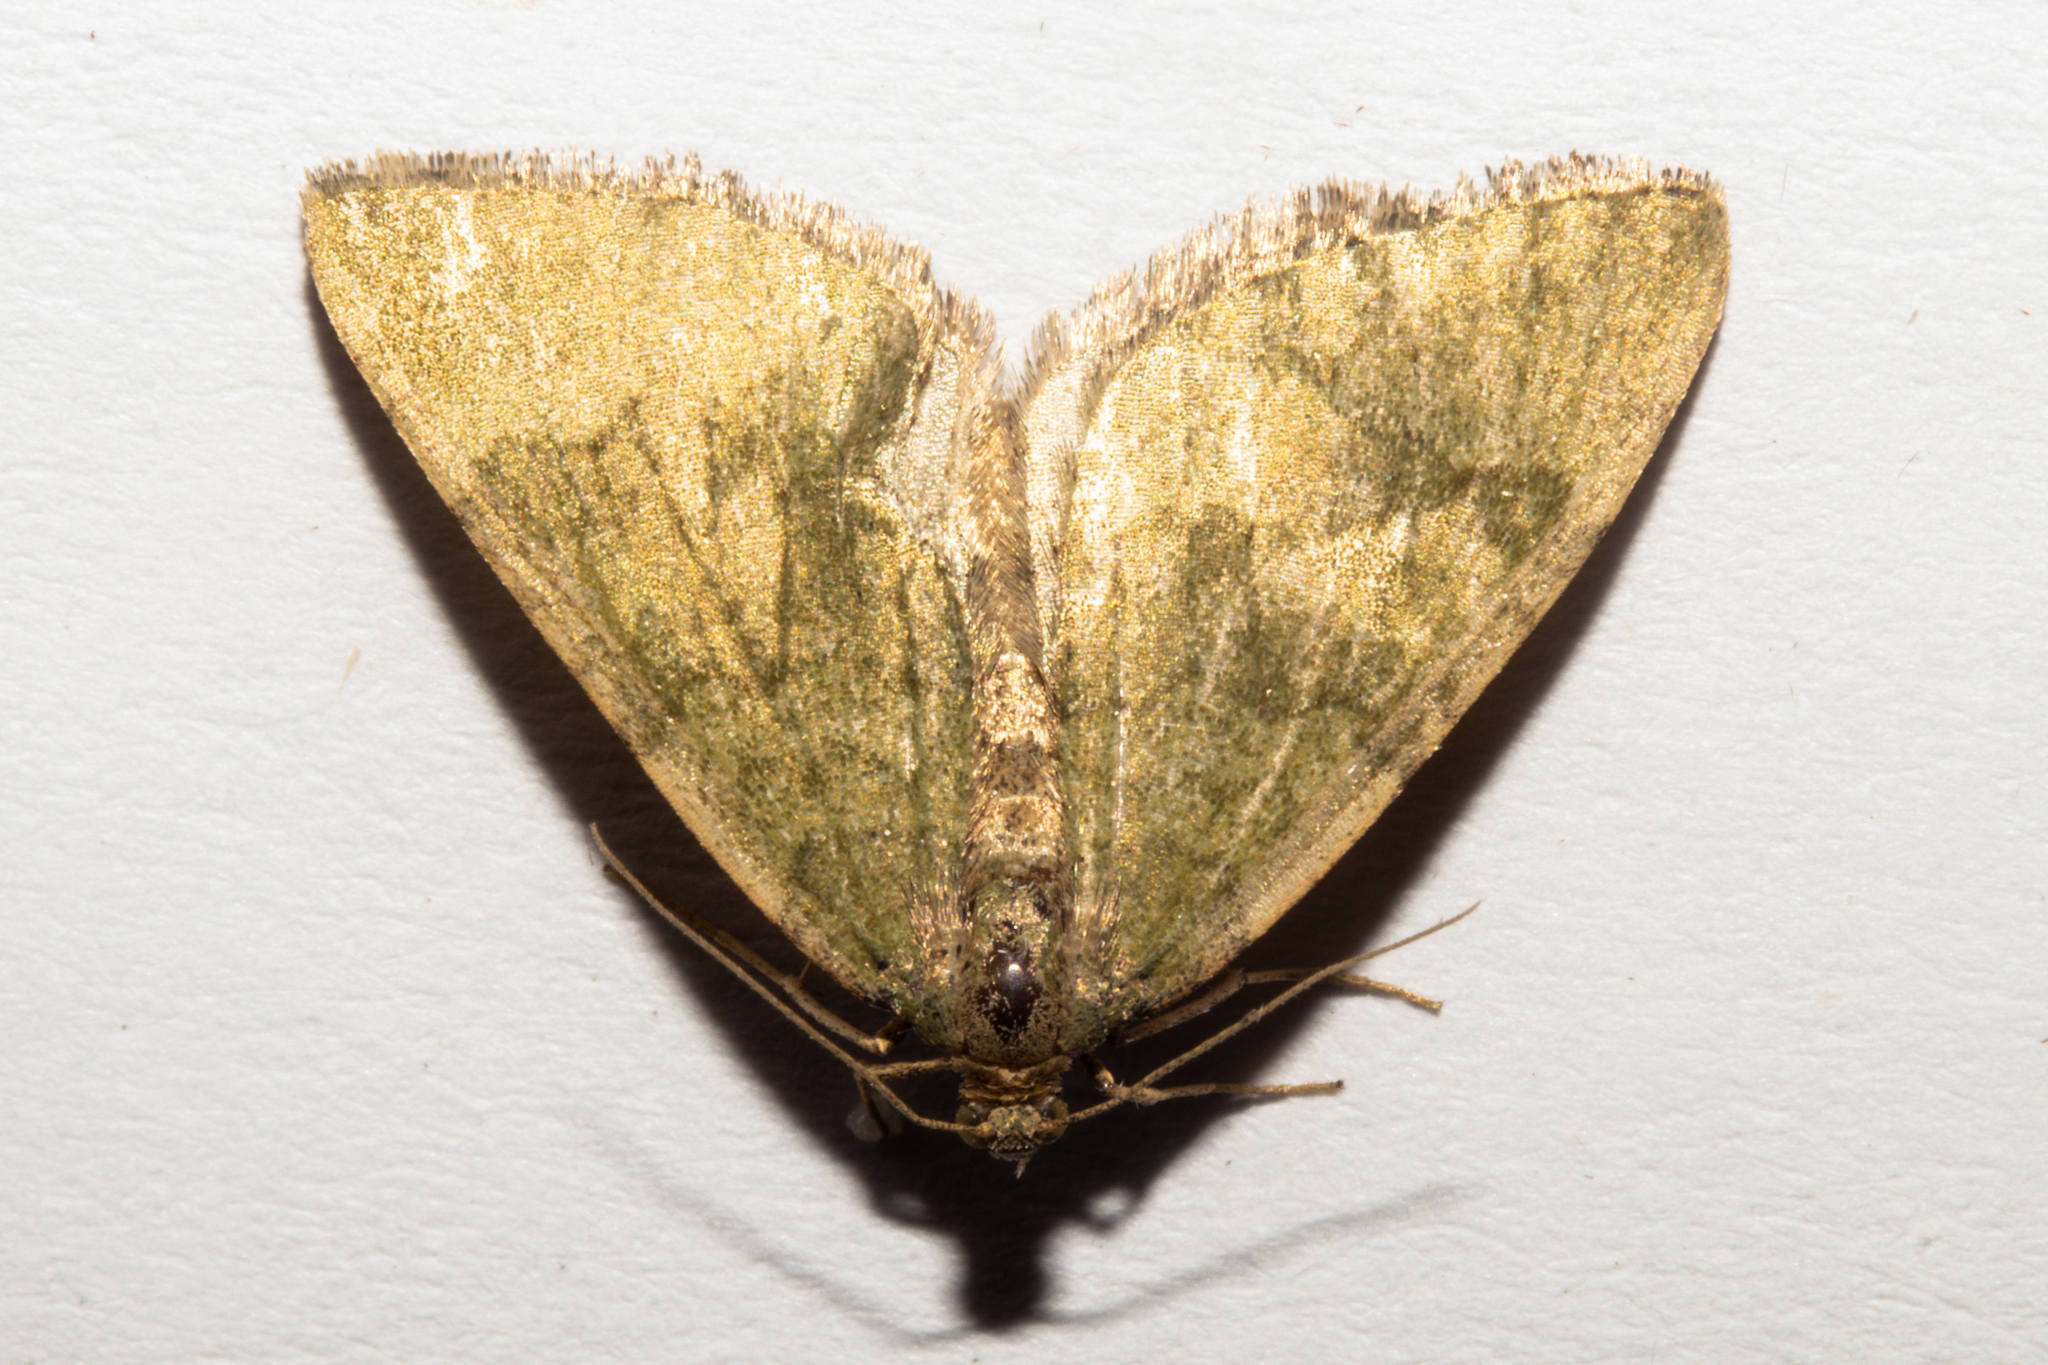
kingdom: Animalia
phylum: Arthropoda
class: Insecta
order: Lepidoptera
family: Geometridae
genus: Epyaxa
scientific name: Epyaxa rosearia
